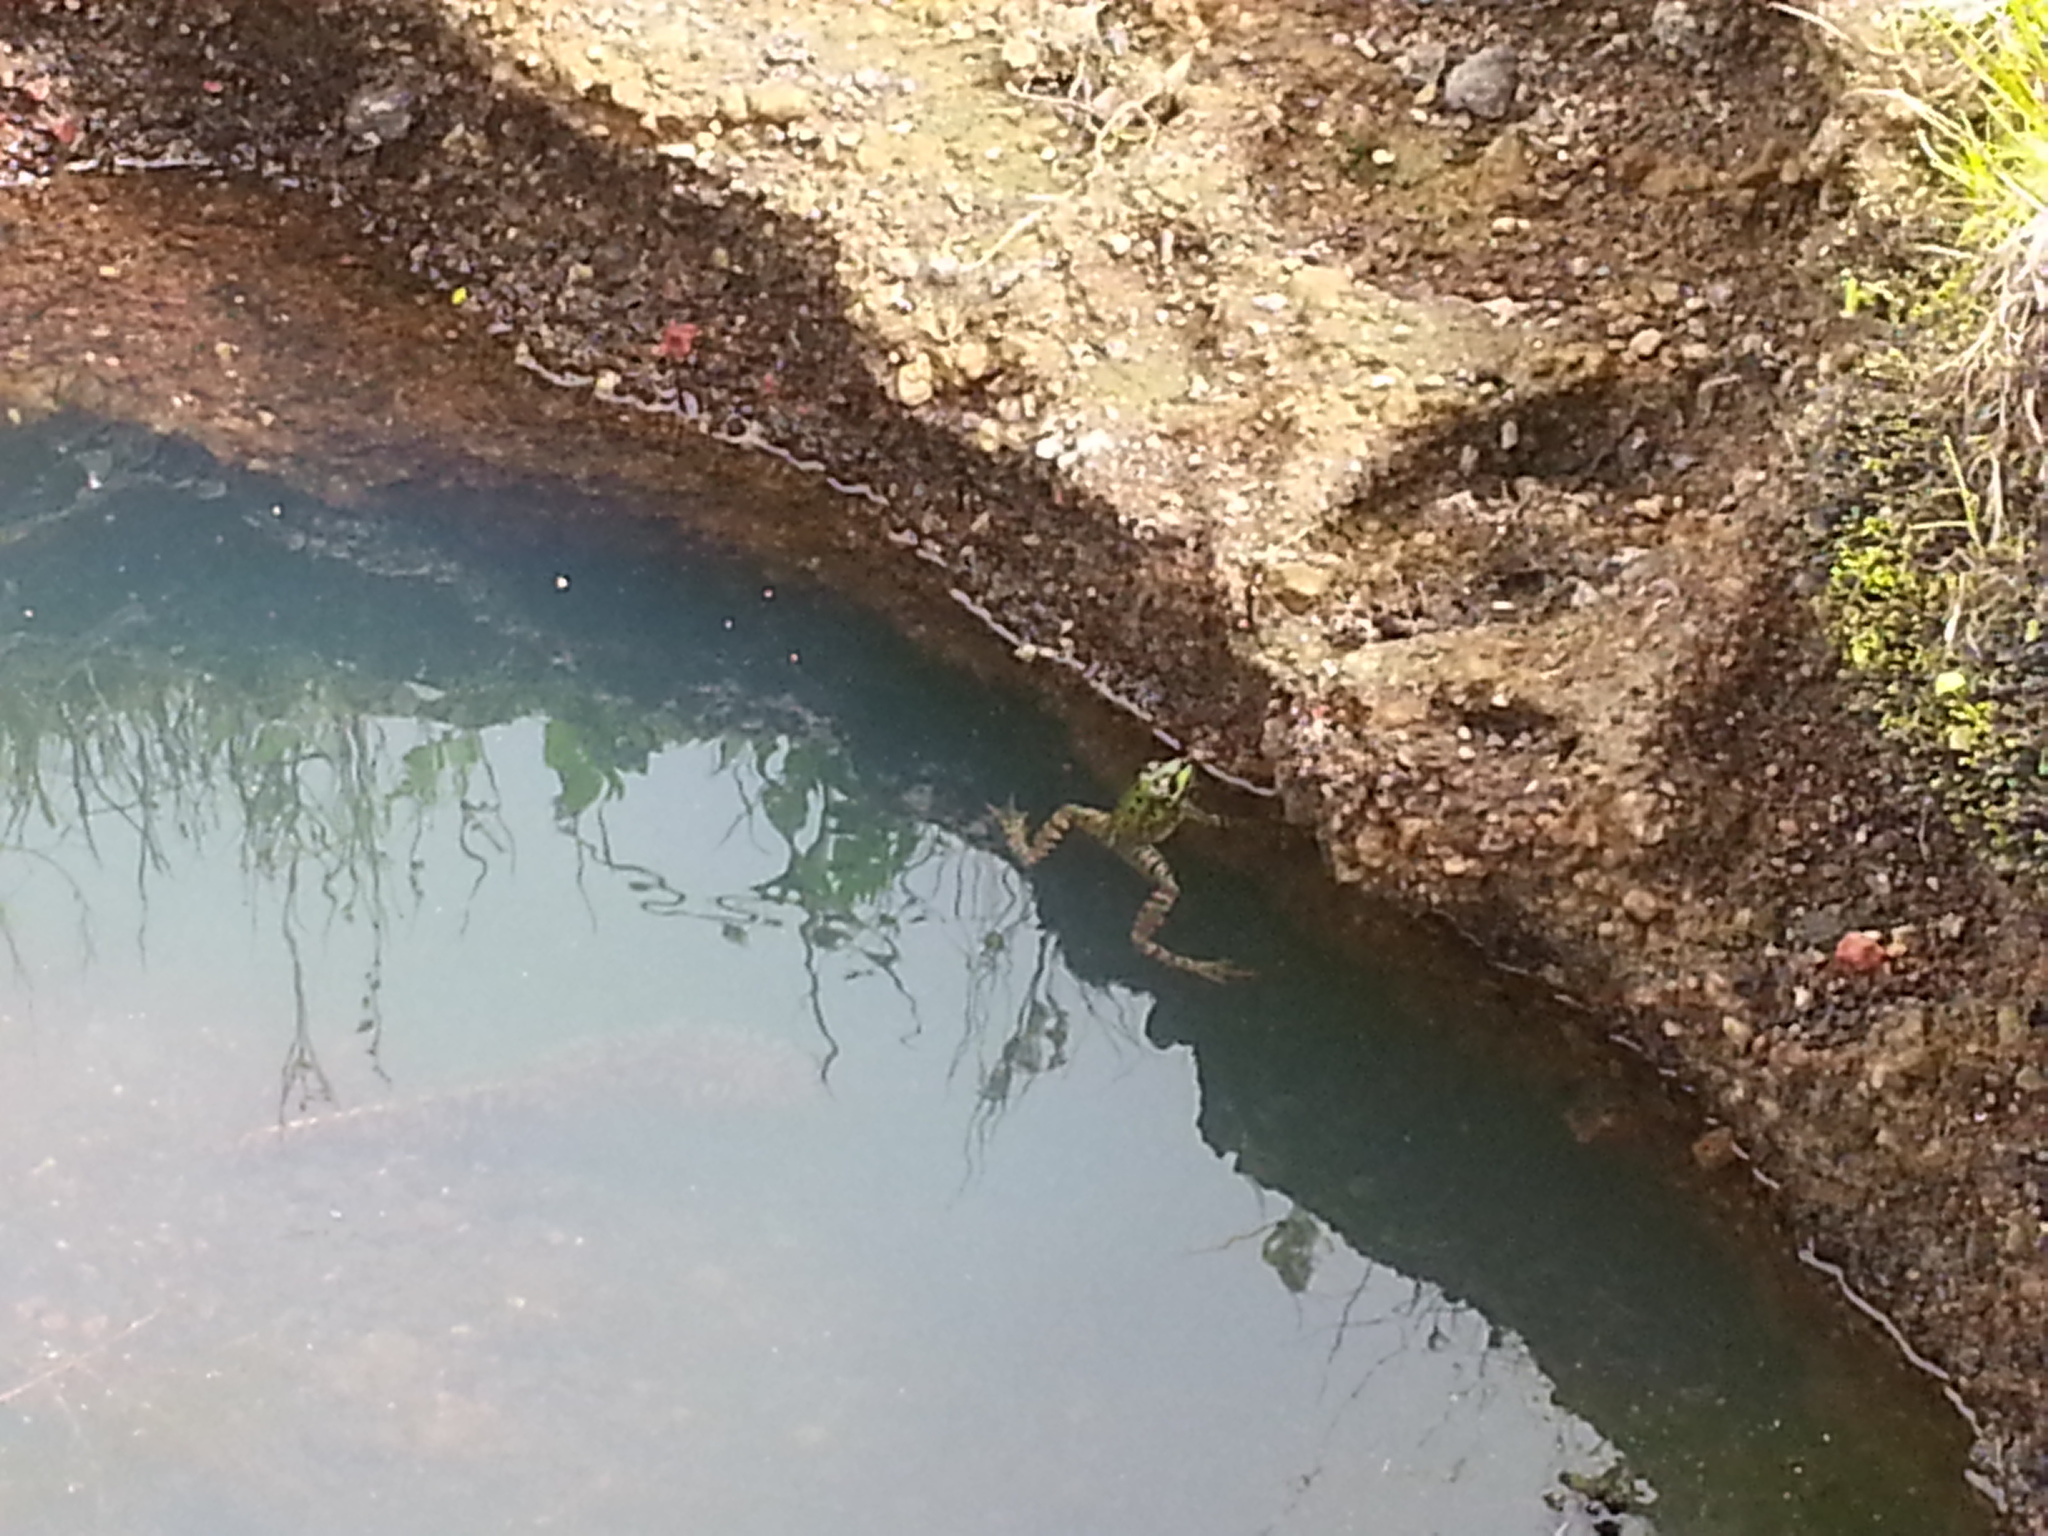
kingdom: Animalia
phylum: Chordata
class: Amphibia
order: Anura
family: Ranidae
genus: Pelophylax
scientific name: Pelophylax perezi
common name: Perez's frog
